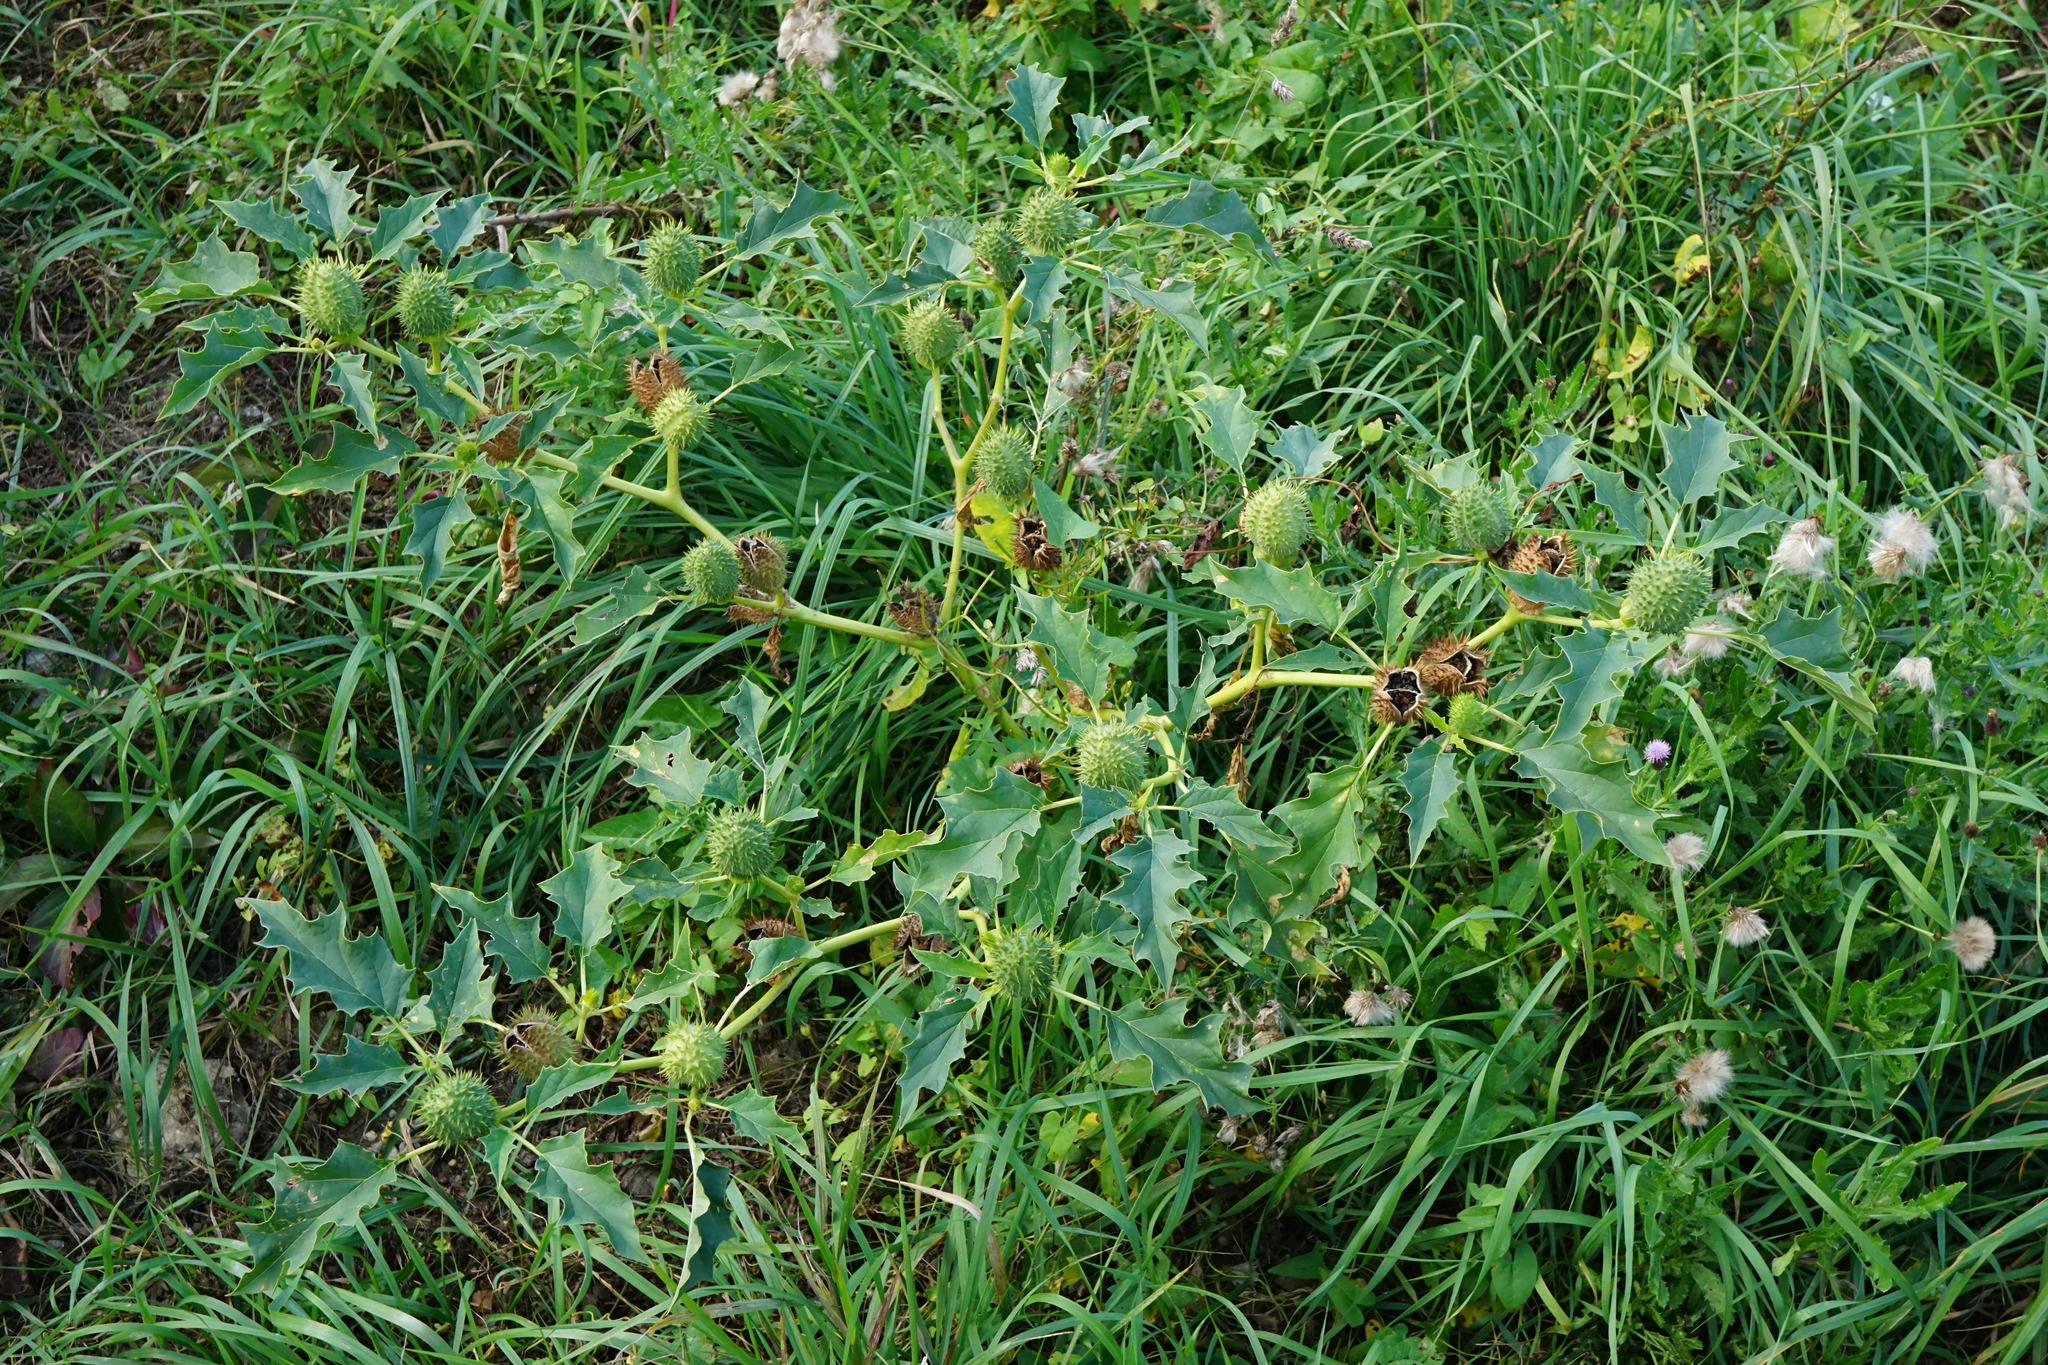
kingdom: Plantae
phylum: Tracheophyta
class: Magnoliopsida
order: Solanales
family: Solanaceae
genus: Datura
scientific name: Datura stramonium
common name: Thorn-apple
